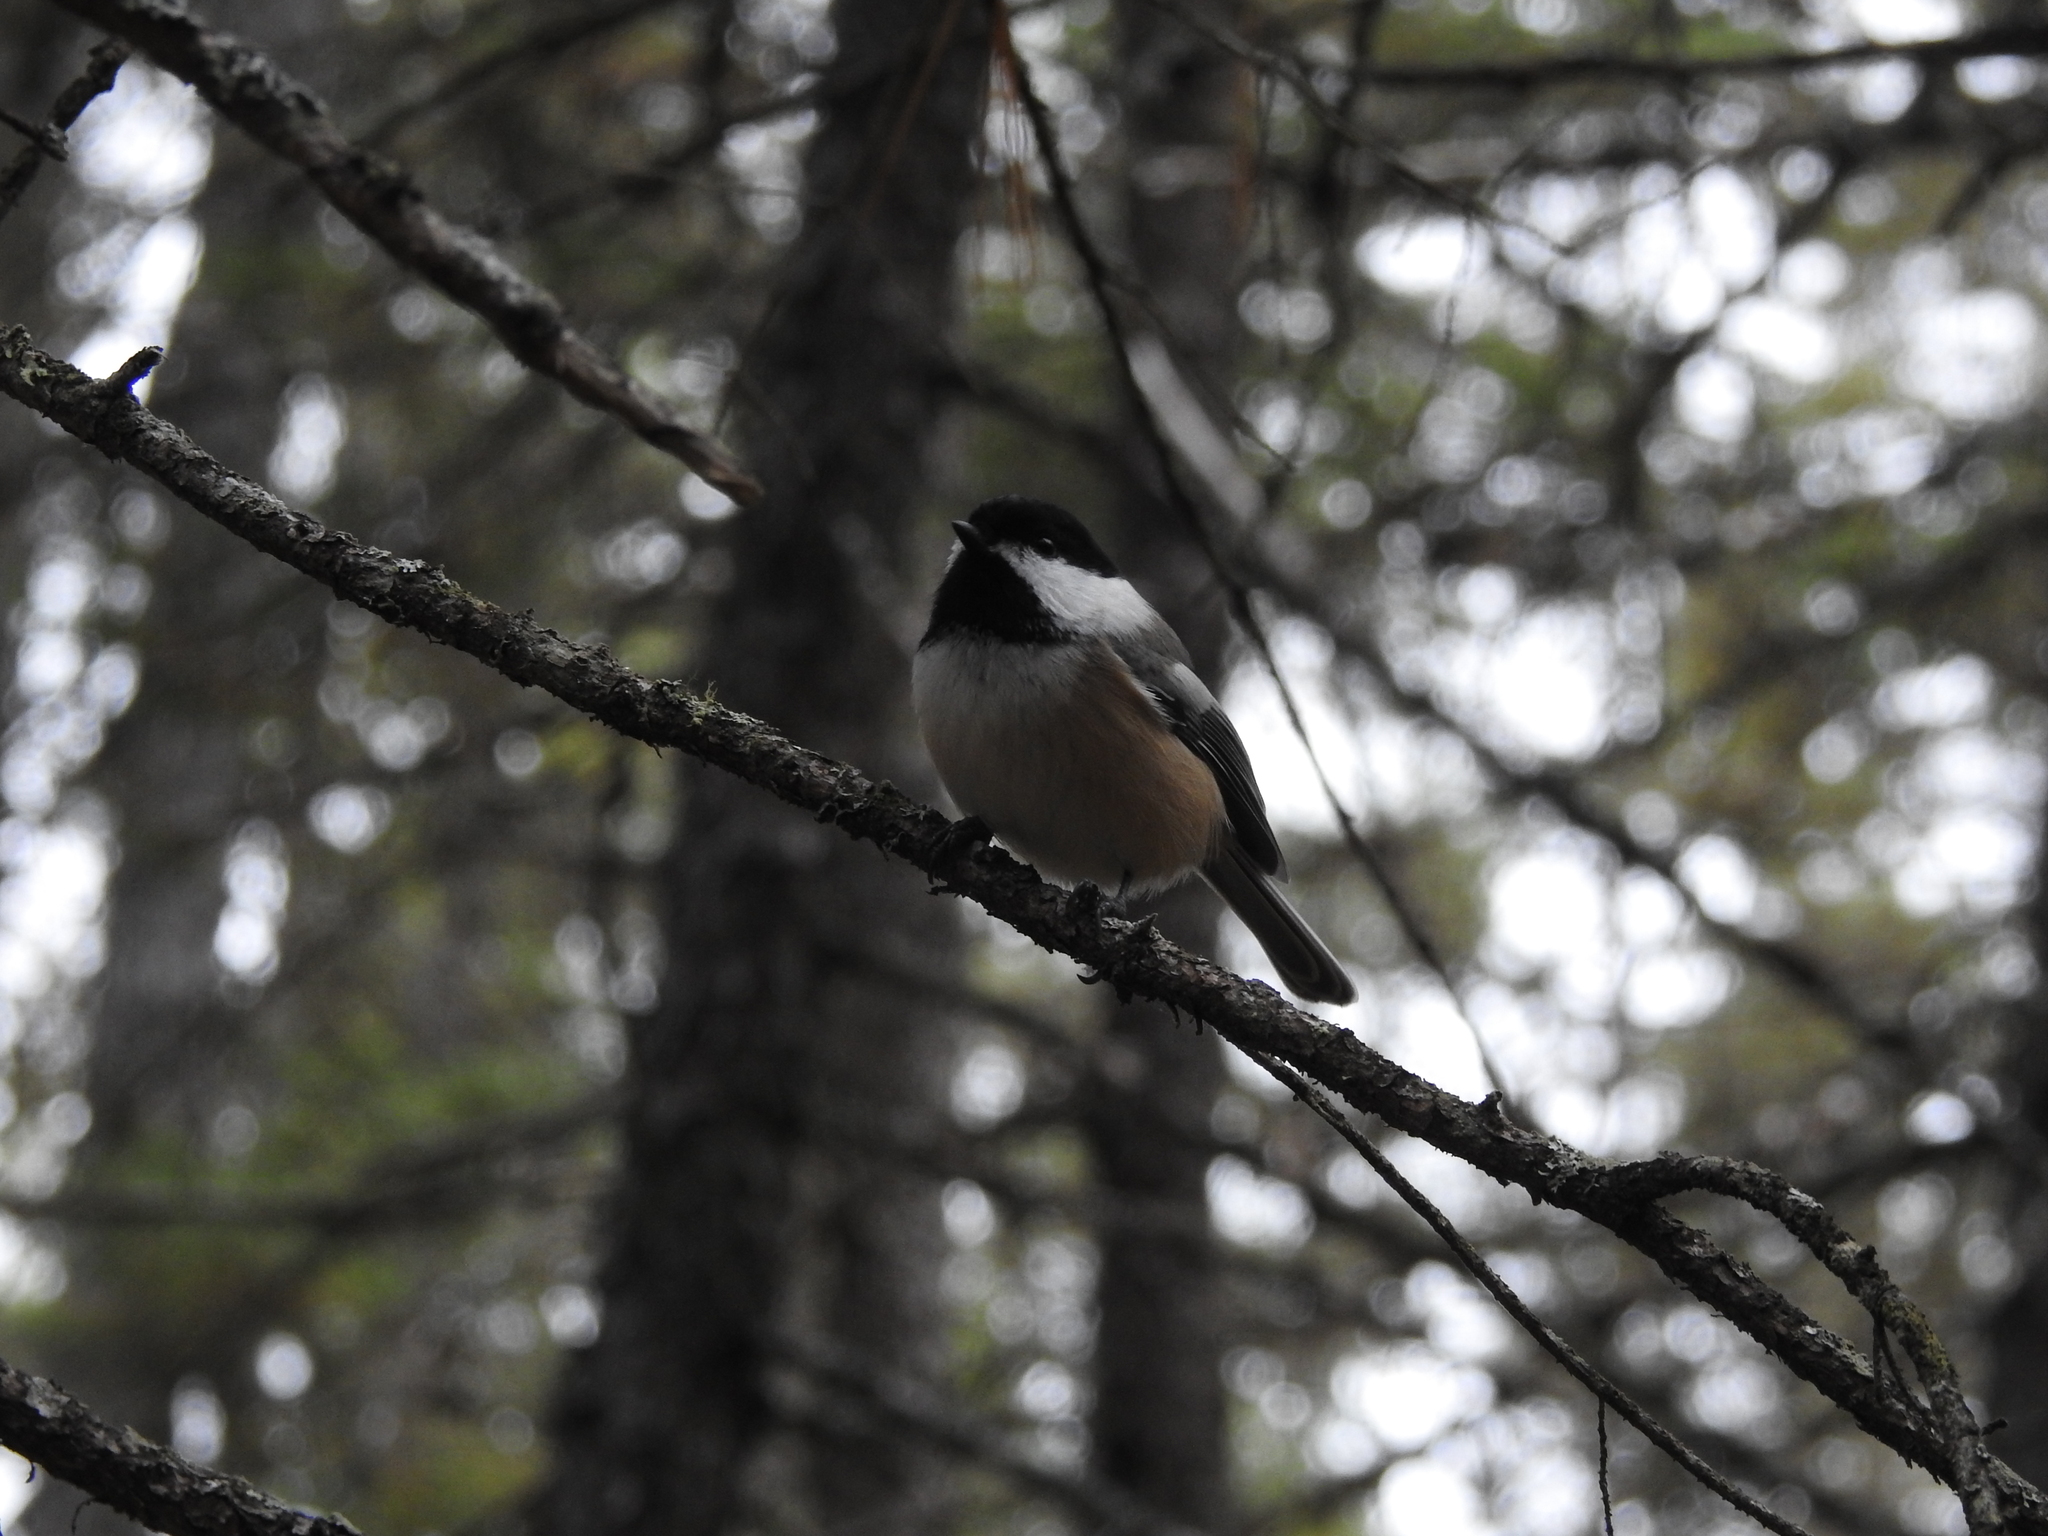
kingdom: Animalia
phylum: Chordata
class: Aves
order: Passeriformes
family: Paridae
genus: Poecile
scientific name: Poecile atricapillus
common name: Black-capped chickadee
